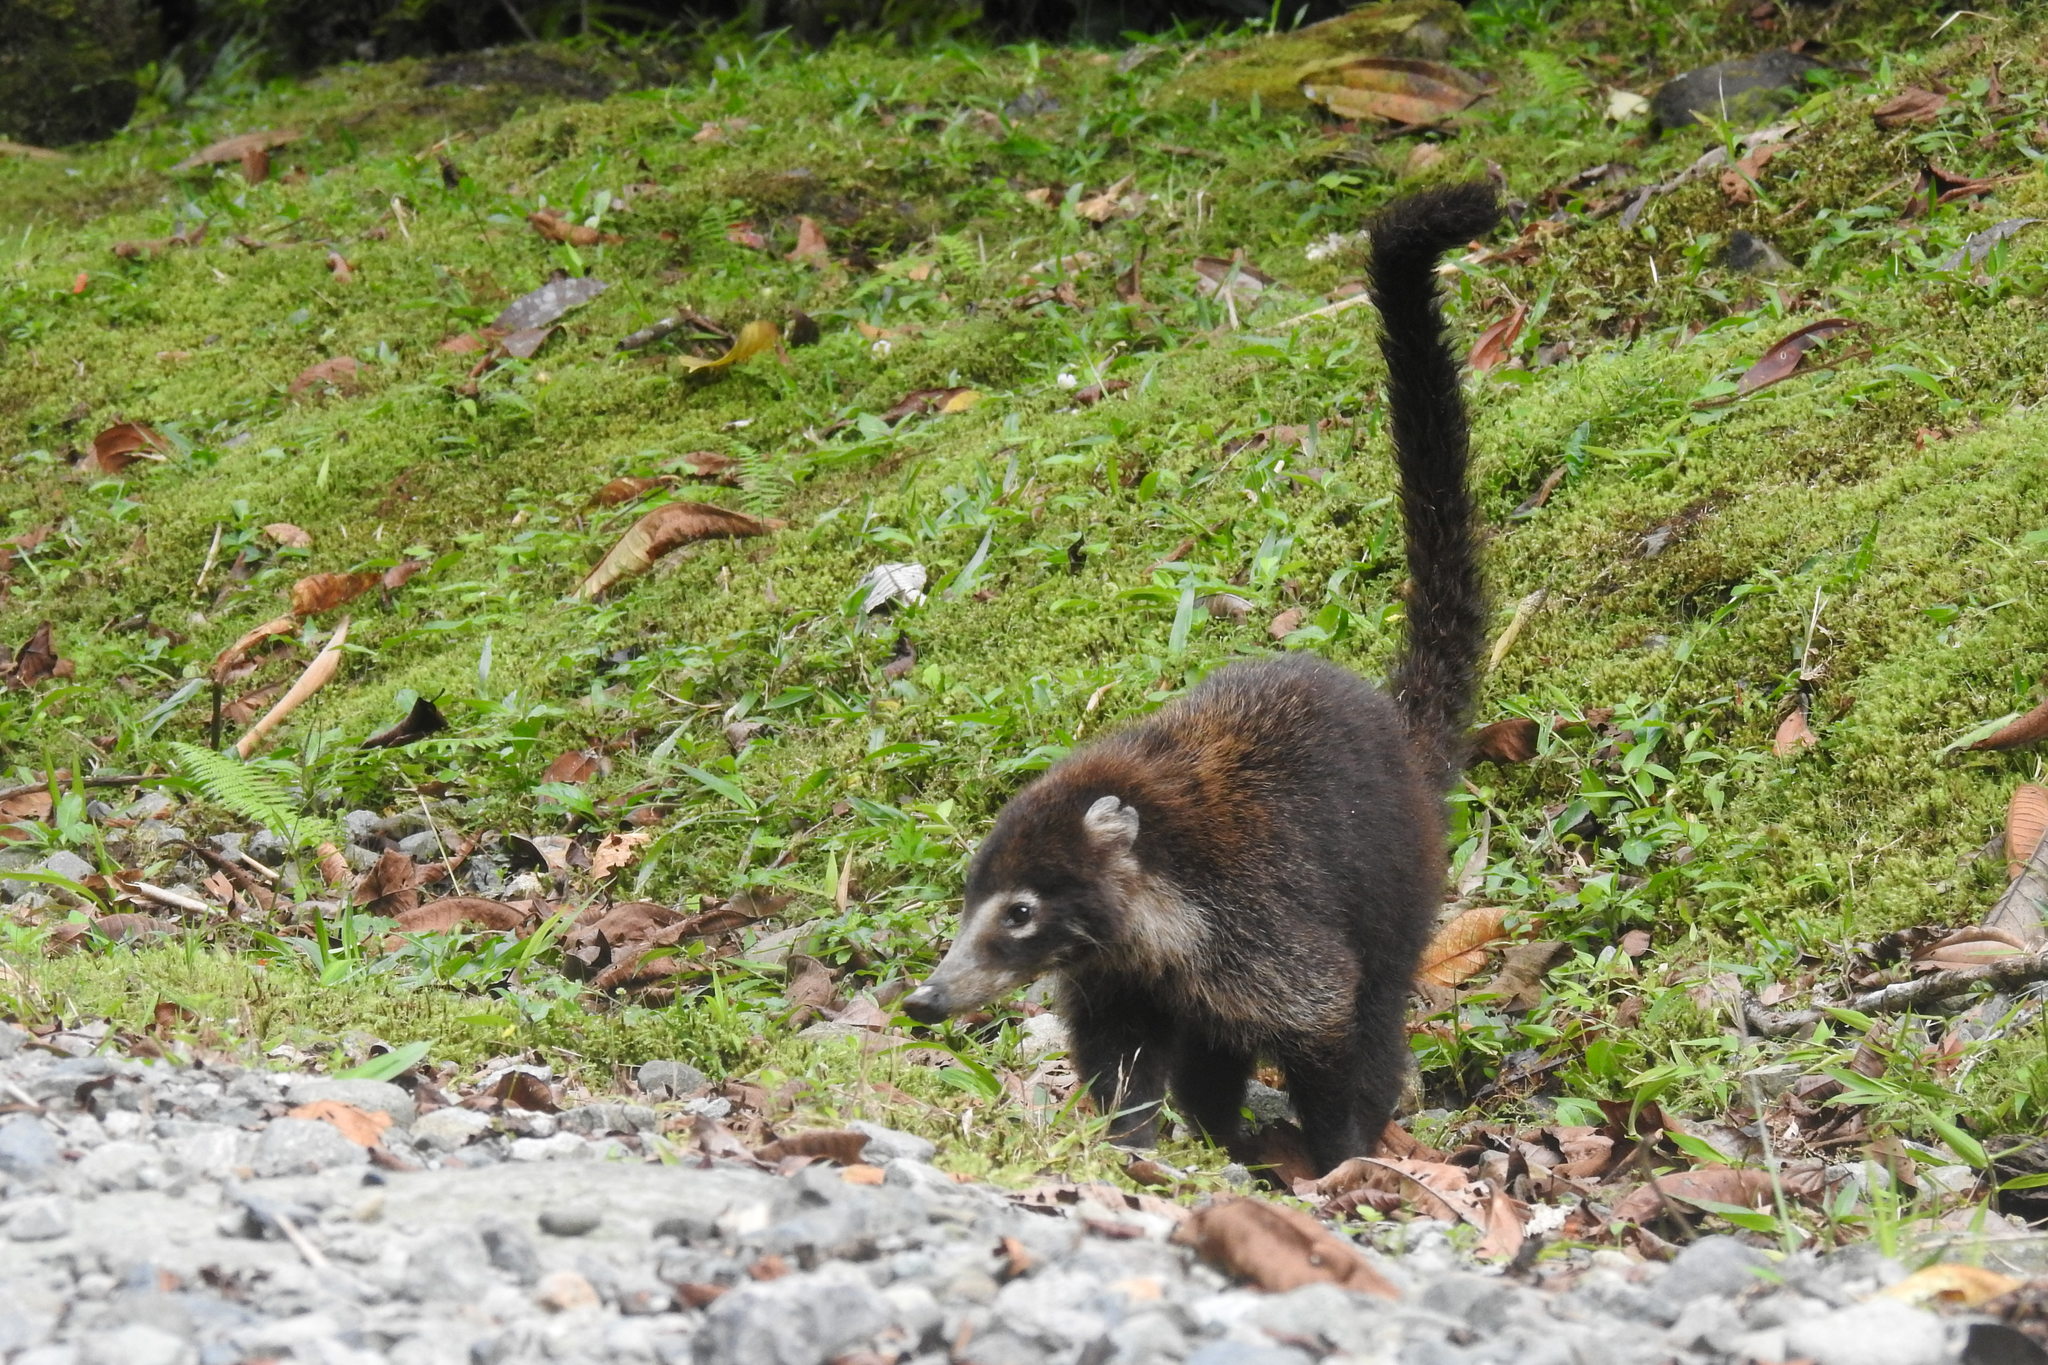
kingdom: Animalia
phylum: Chordata
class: Mammalia
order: Carnivora
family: Procyonidae
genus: Nasua
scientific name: Nasua narica
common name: White-nosed coati
